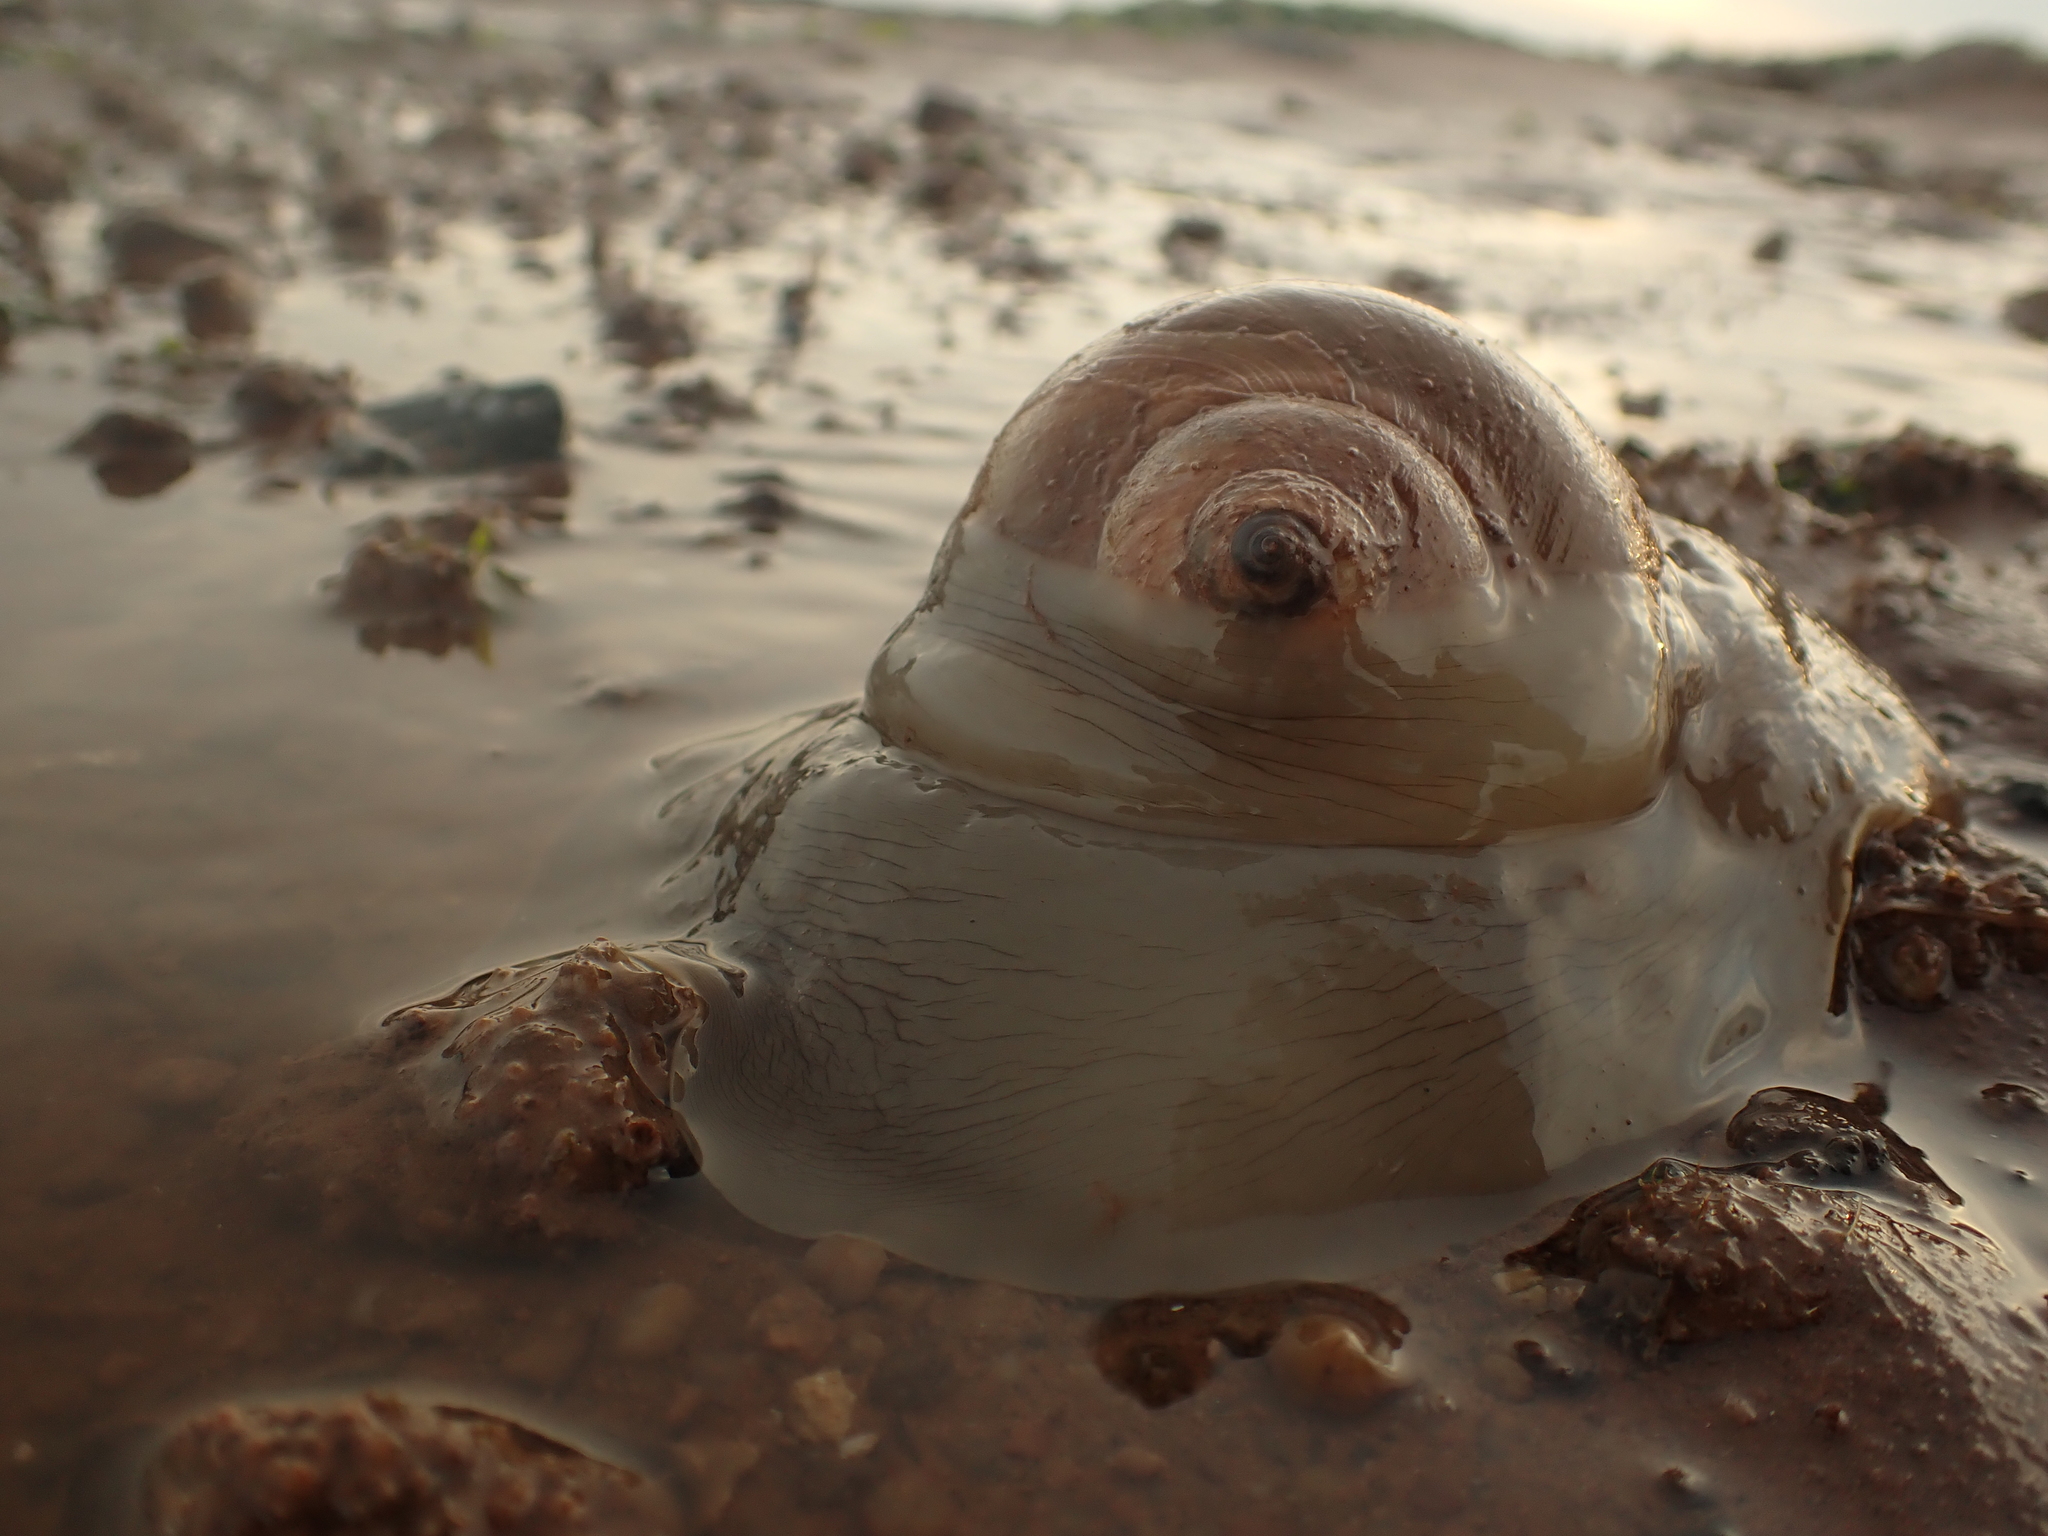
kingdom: Animalia
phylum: Mollusca
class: Gastropoda
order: Littorinimorpha
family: Naticidae
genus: Euspira
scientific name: Euspira heros
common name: Common northern moonsnail
